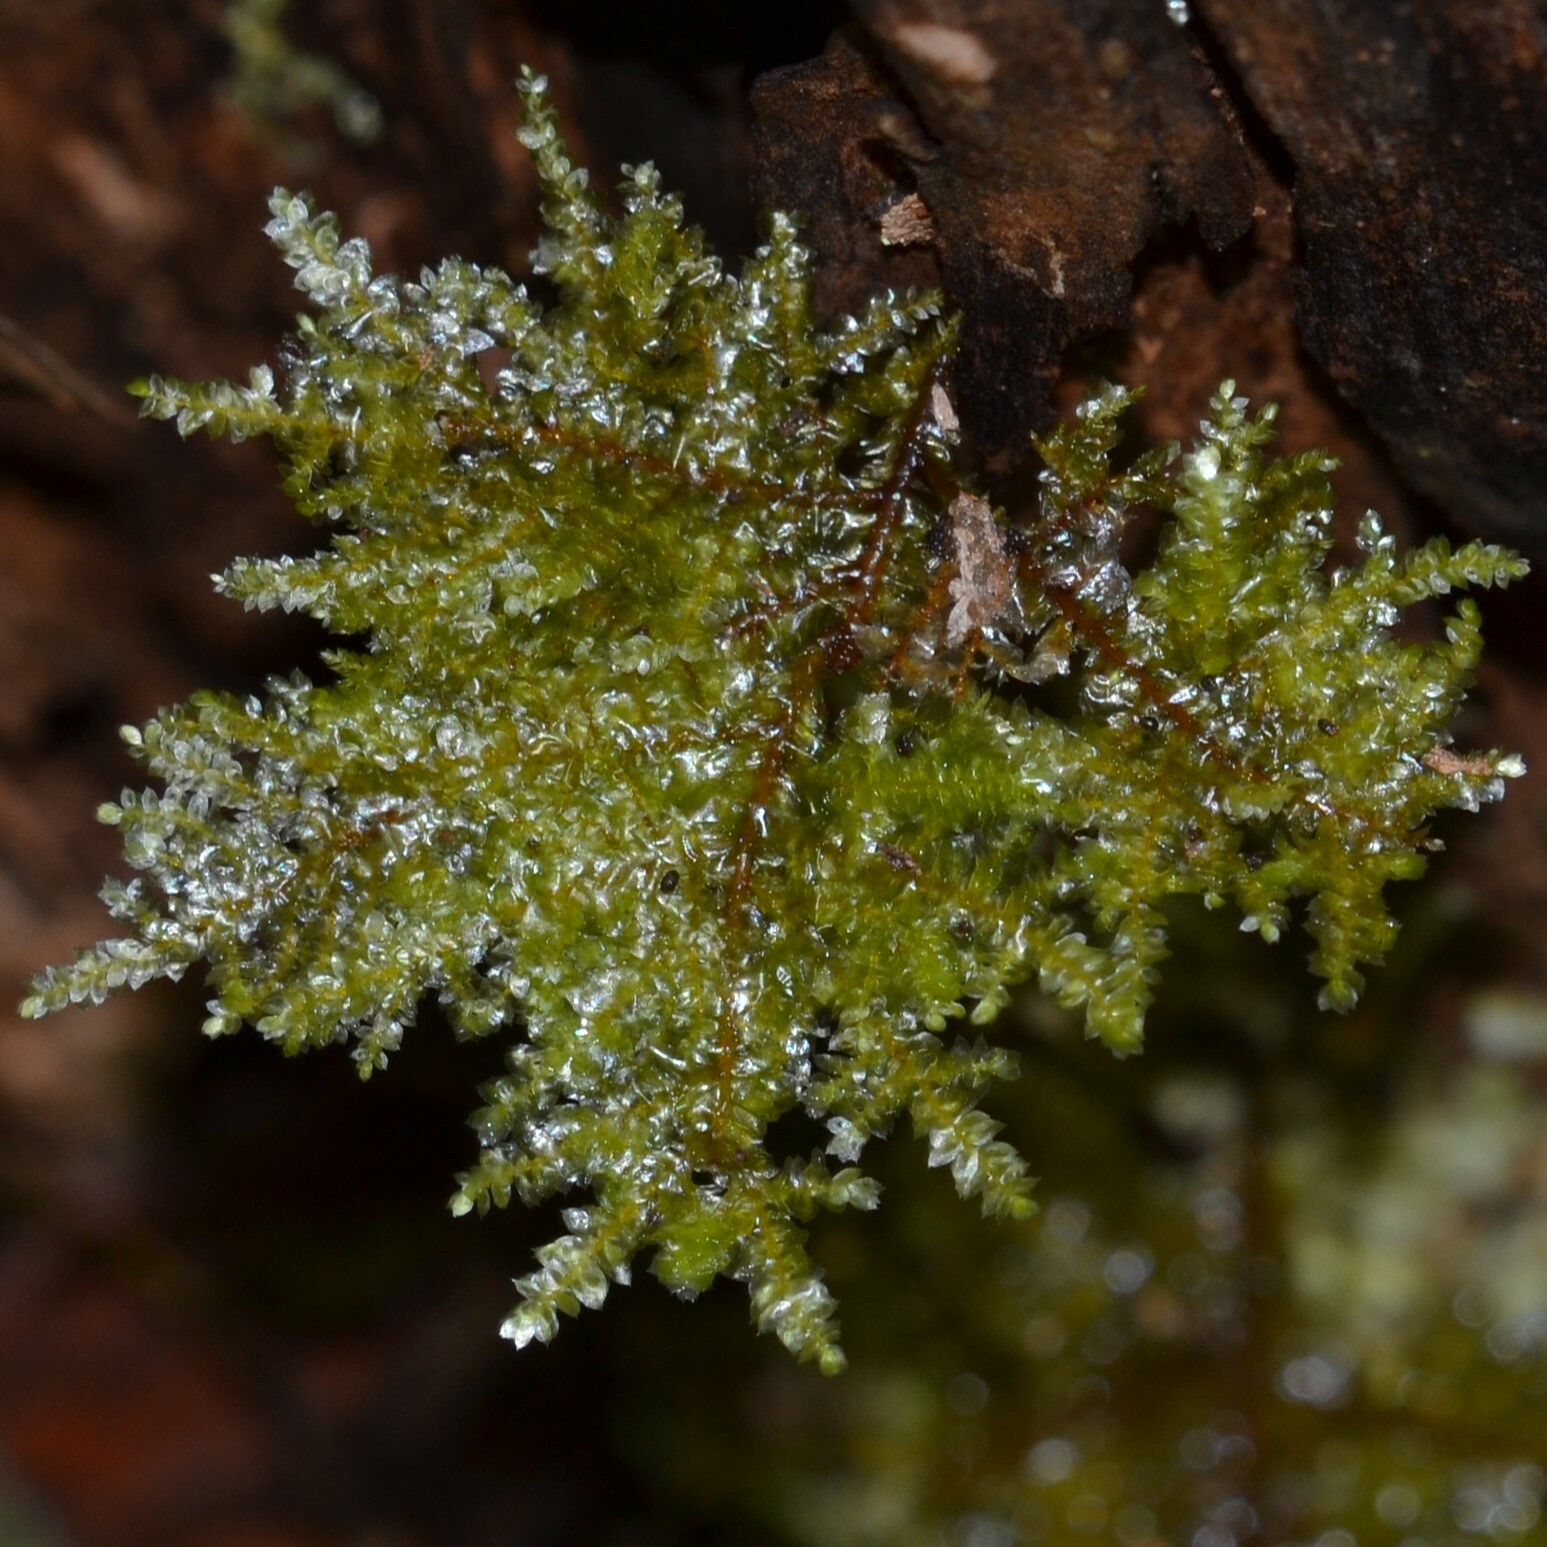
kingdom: Plantae
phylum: Bryophyta
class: Bryopsida
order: Hypnales
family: Neckeraceae
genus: Homaliodendron
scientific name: Homaliodendron flabellatum
